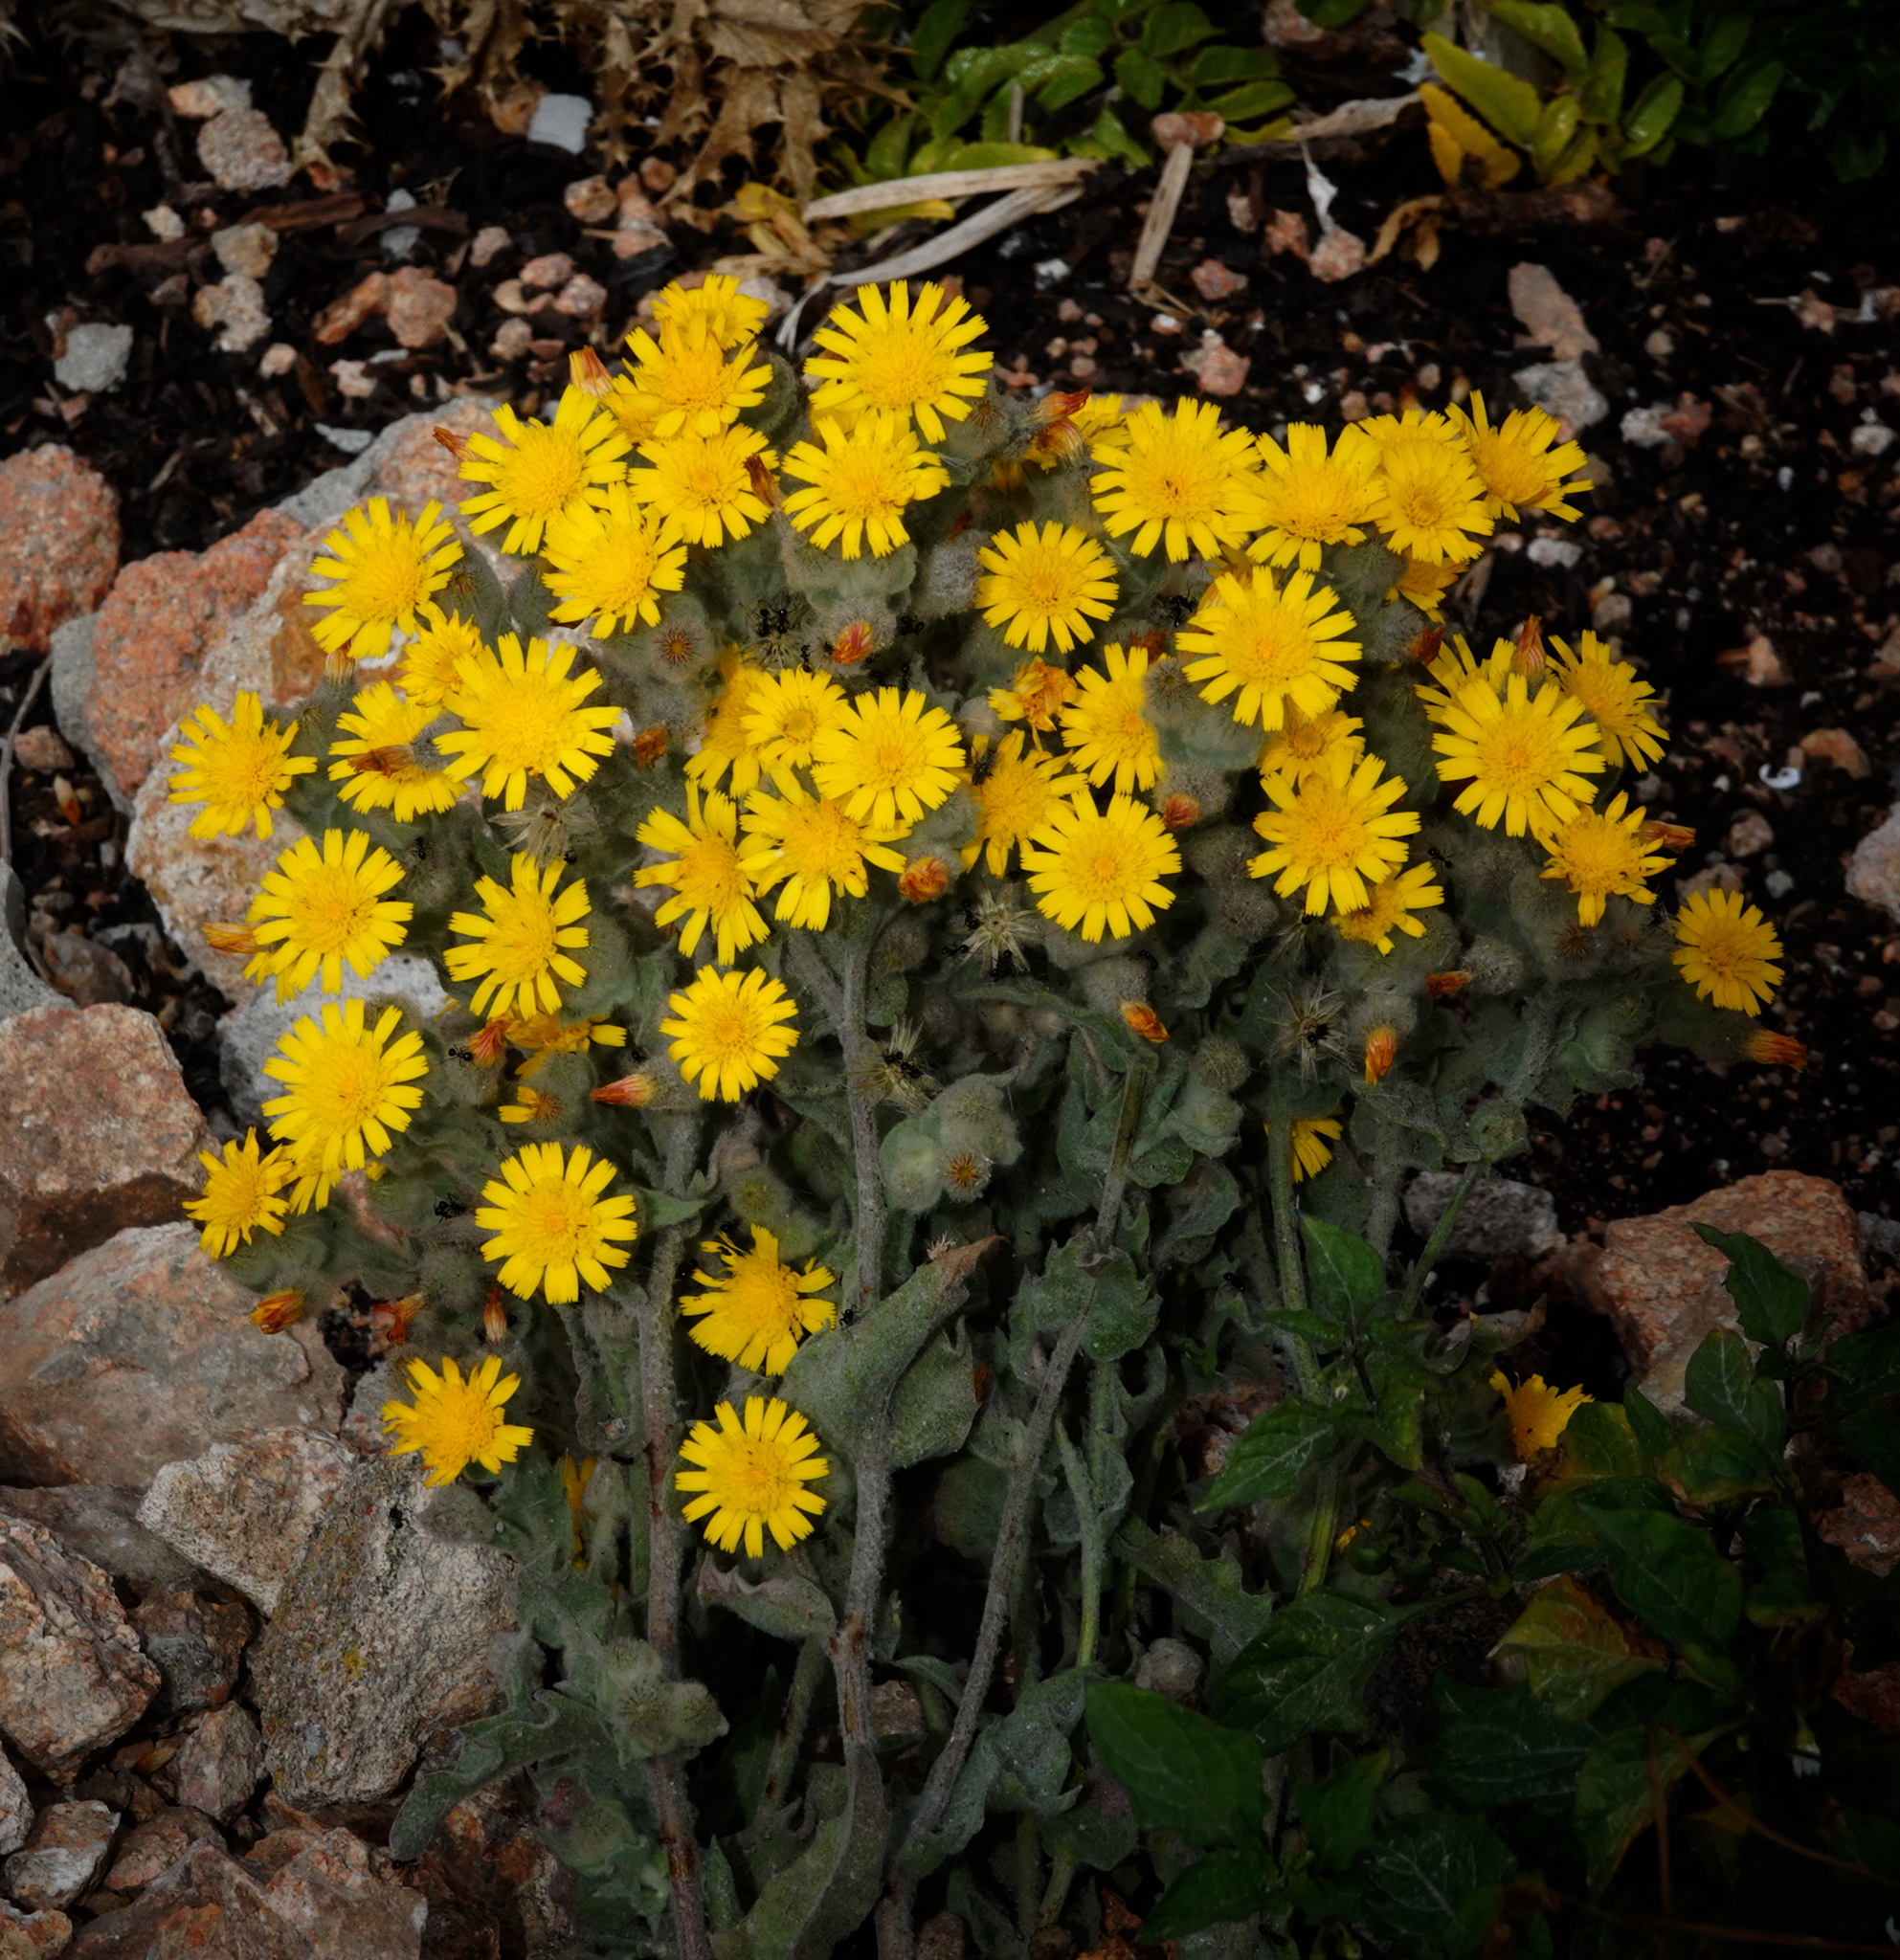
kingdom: Plantae
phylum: Tracheophyta
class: Magnoliopsida
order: Asterales
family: Asteraceae
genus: Andryala
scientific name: Andryala arenaria
